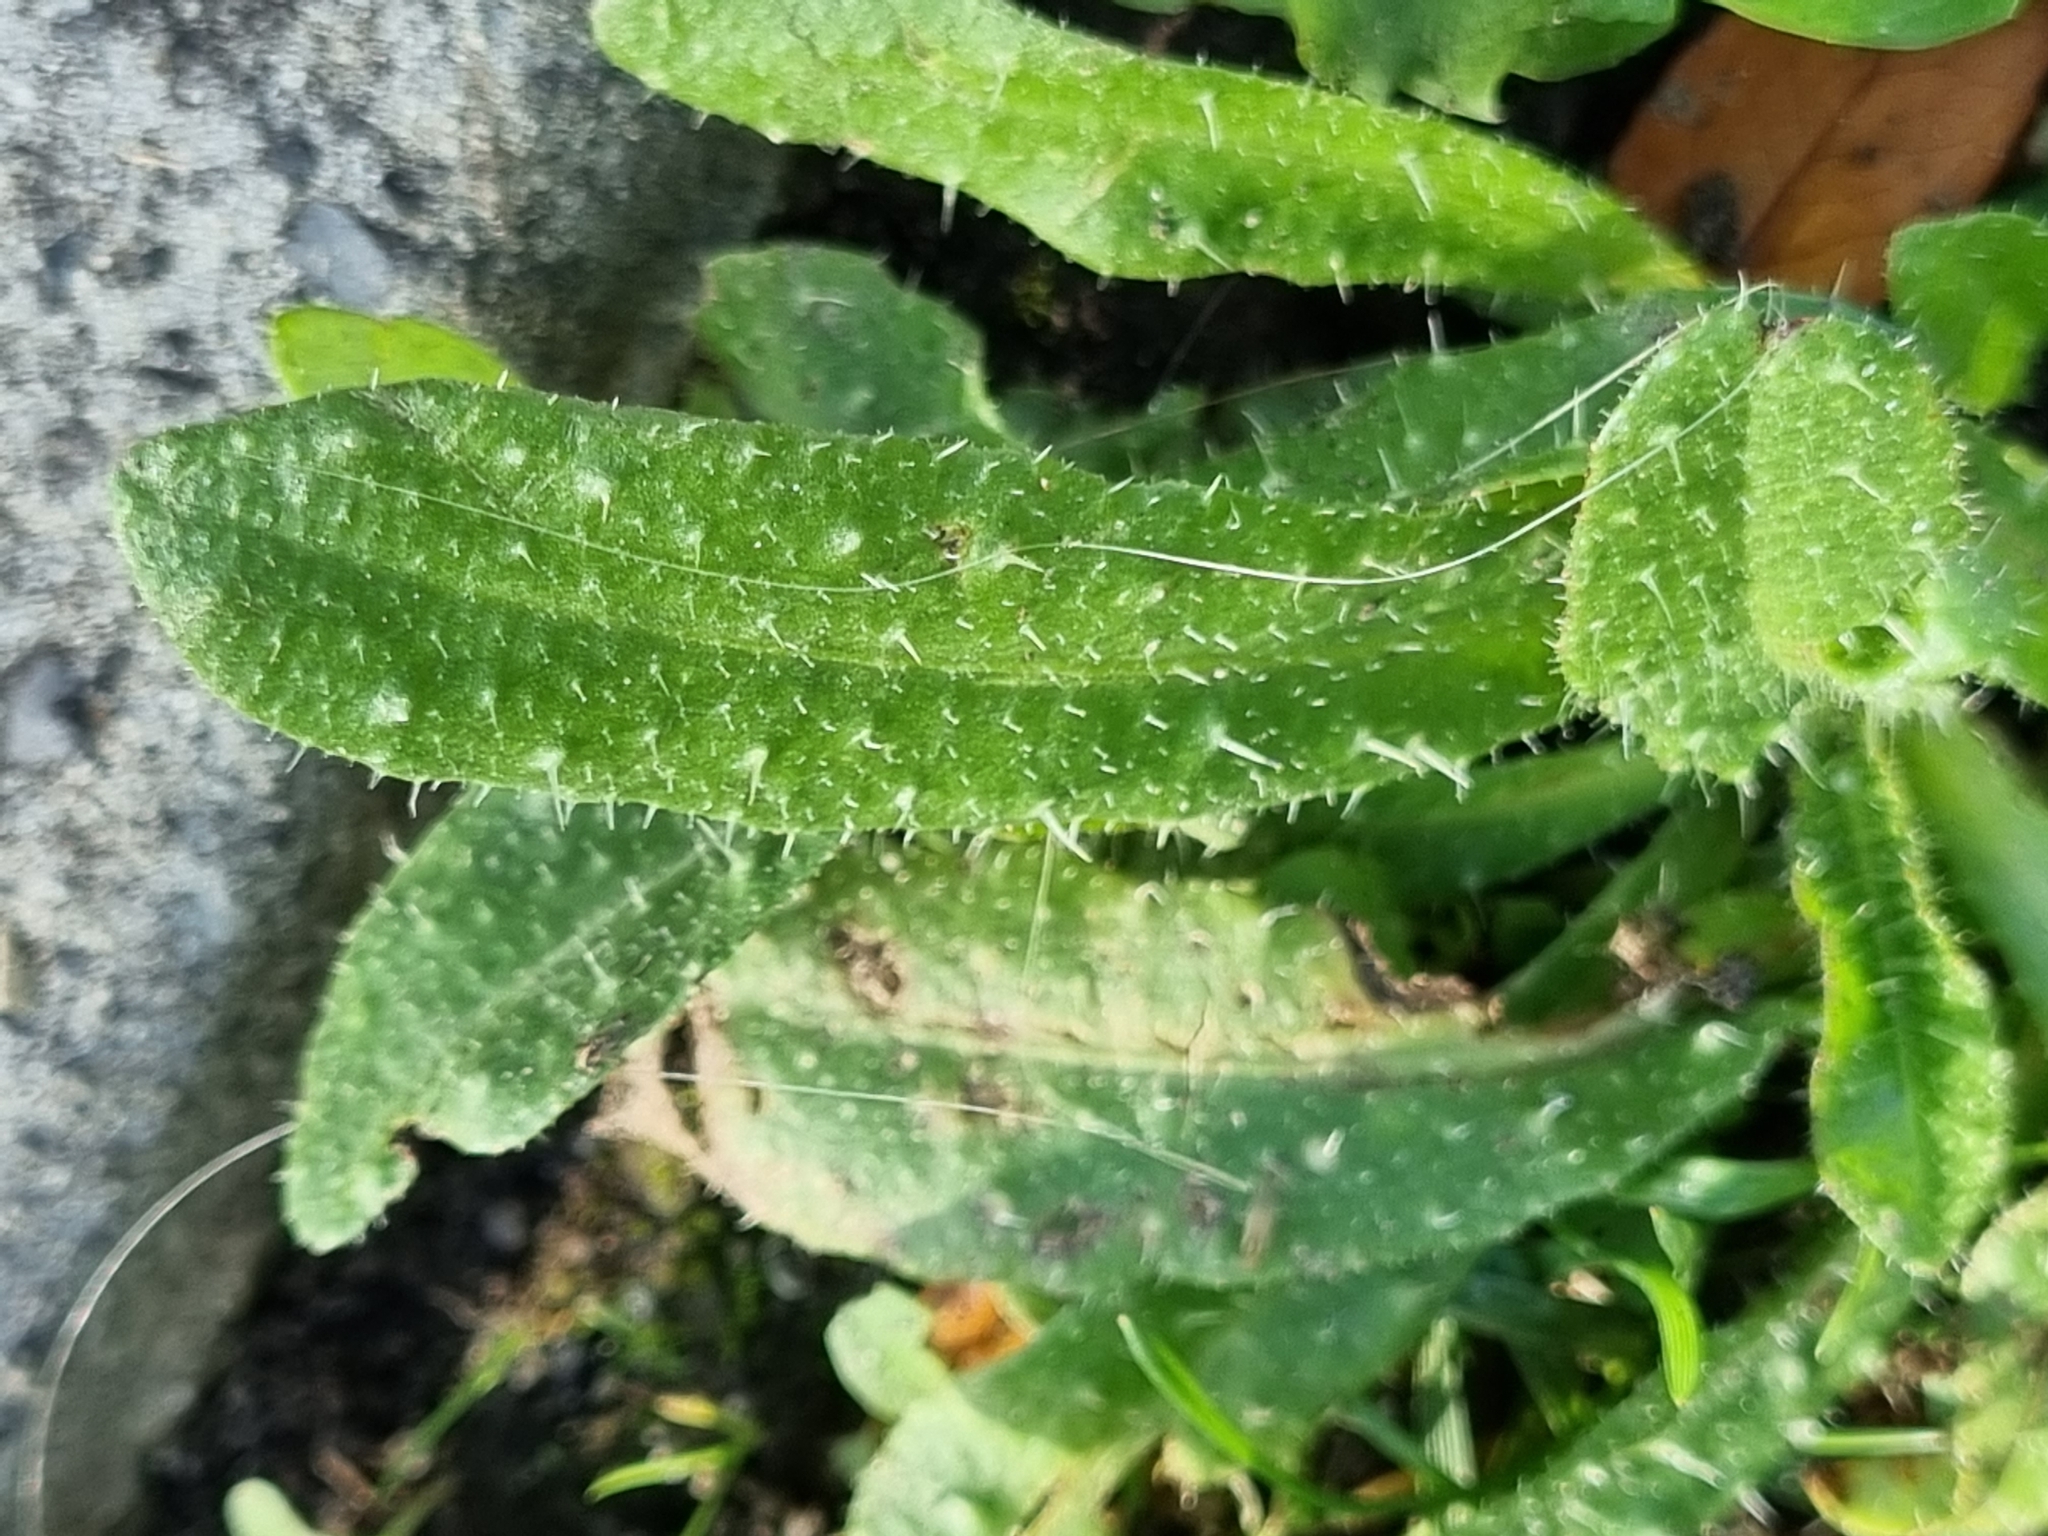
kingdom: Plantae
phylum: Tracheophyta
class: Magnoliopsida
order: Asterales
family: Asteraceae
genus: Helminthotheca
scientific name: Helminthotheca echioides
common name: Ox-tongue
